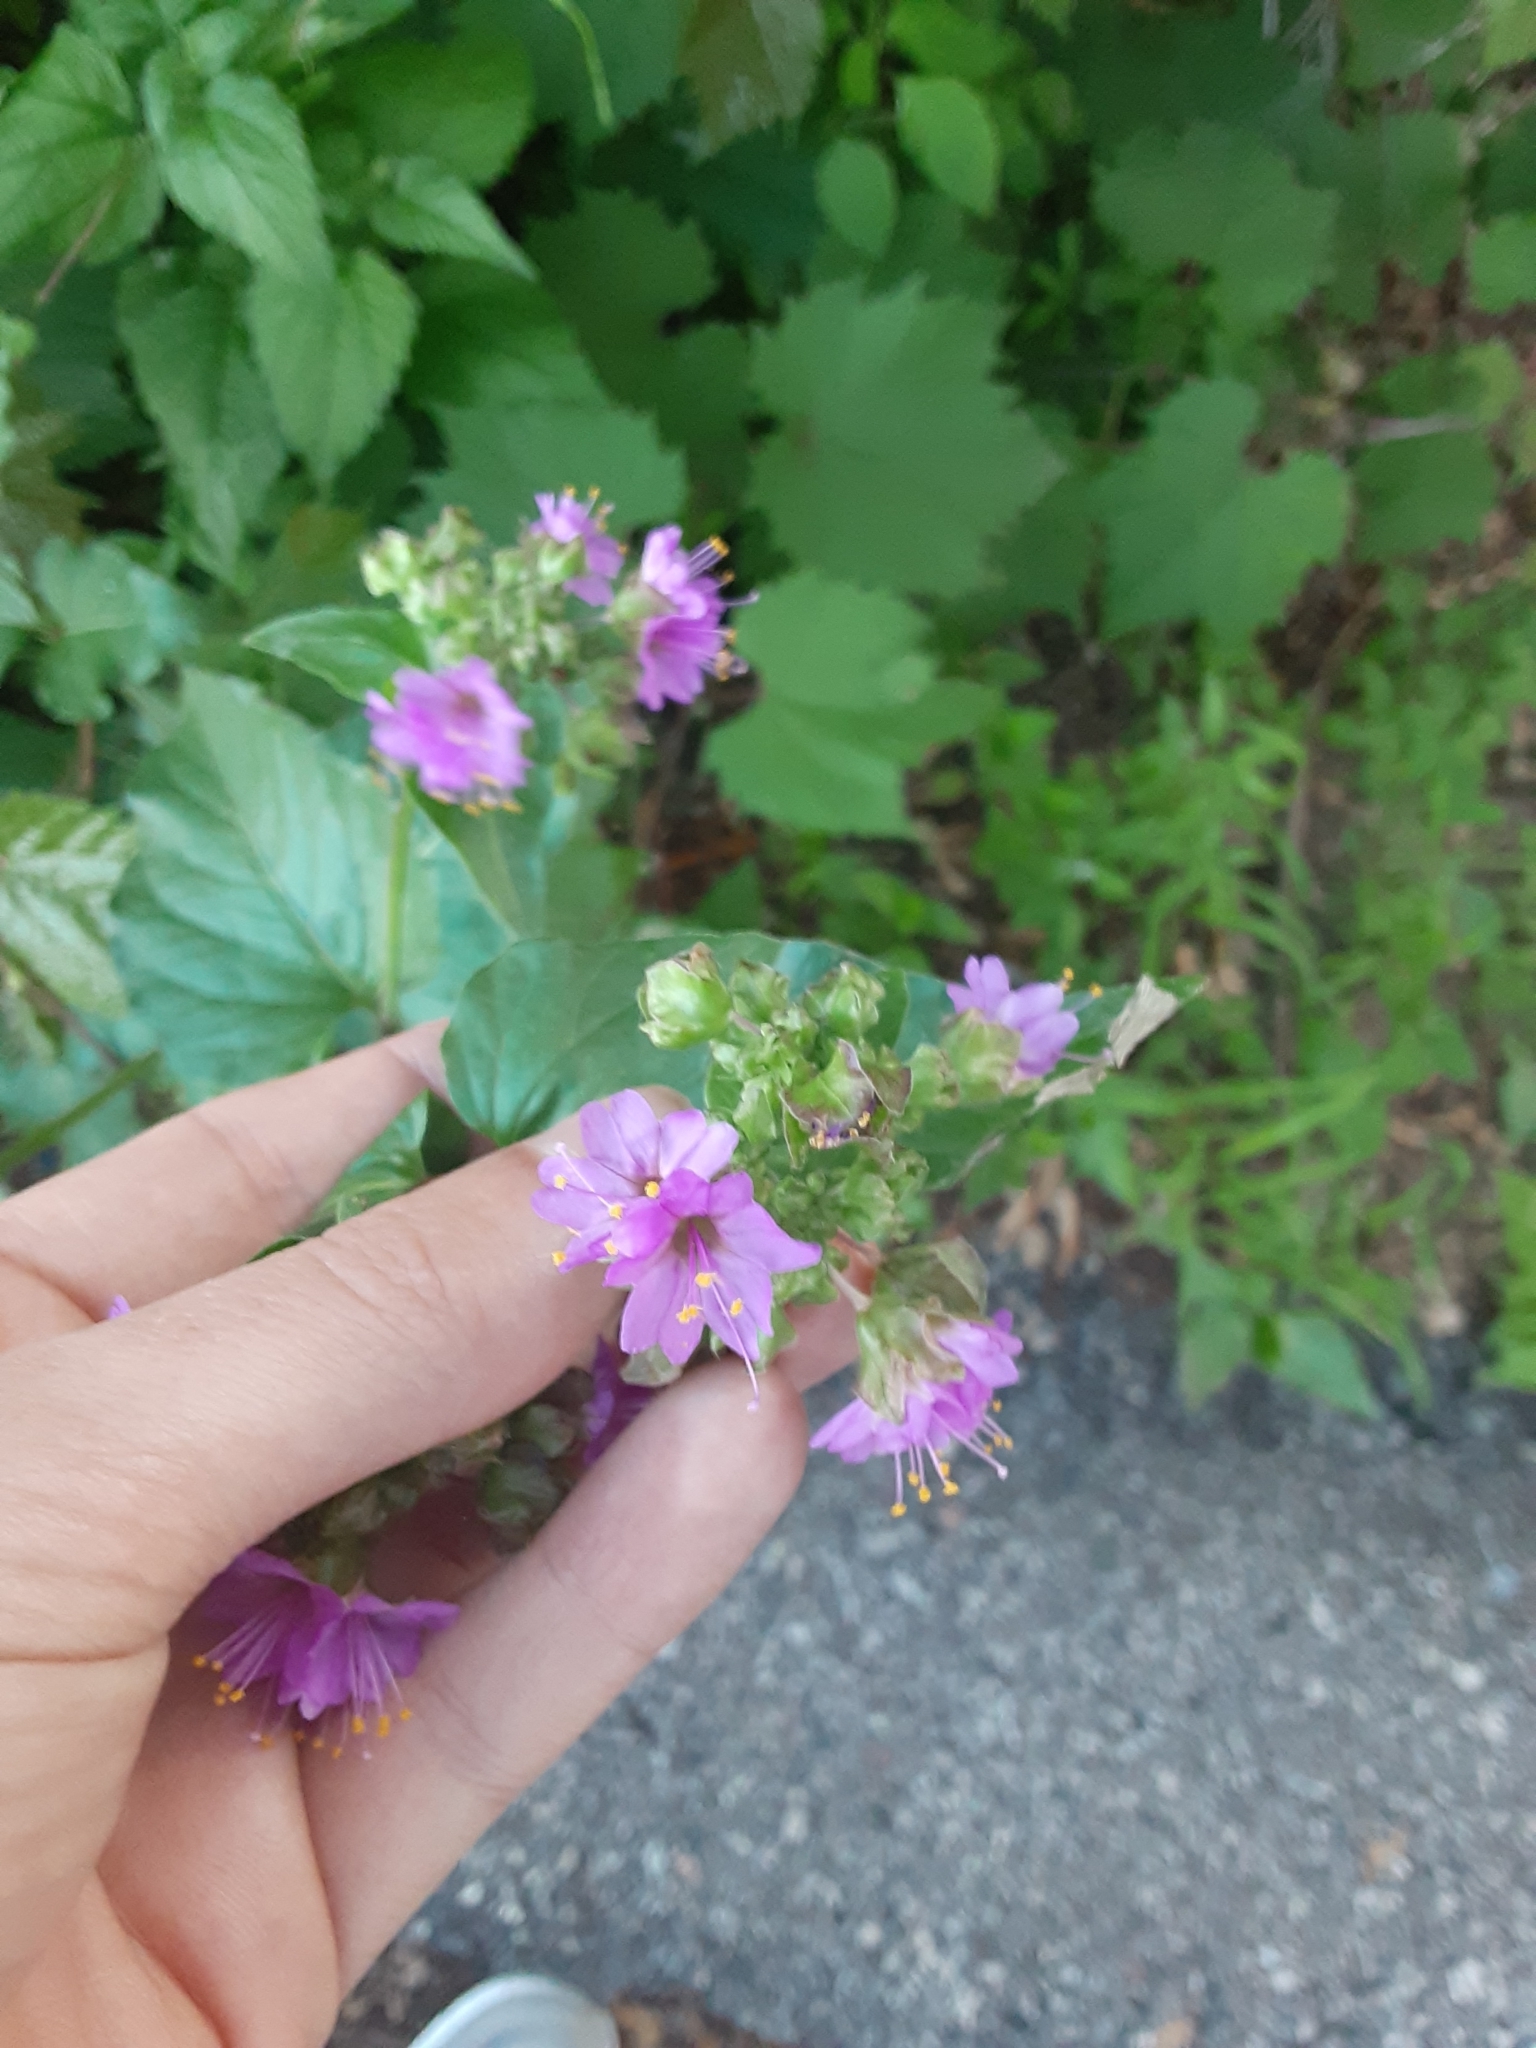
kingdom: Plantae
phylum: Tracheophyta
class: Magnoliopsida
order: Caryophyllales
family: Nyctaginaceae
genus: Mirabilis
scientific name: Mirabilis nyctaginea
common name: Umbrella wort
